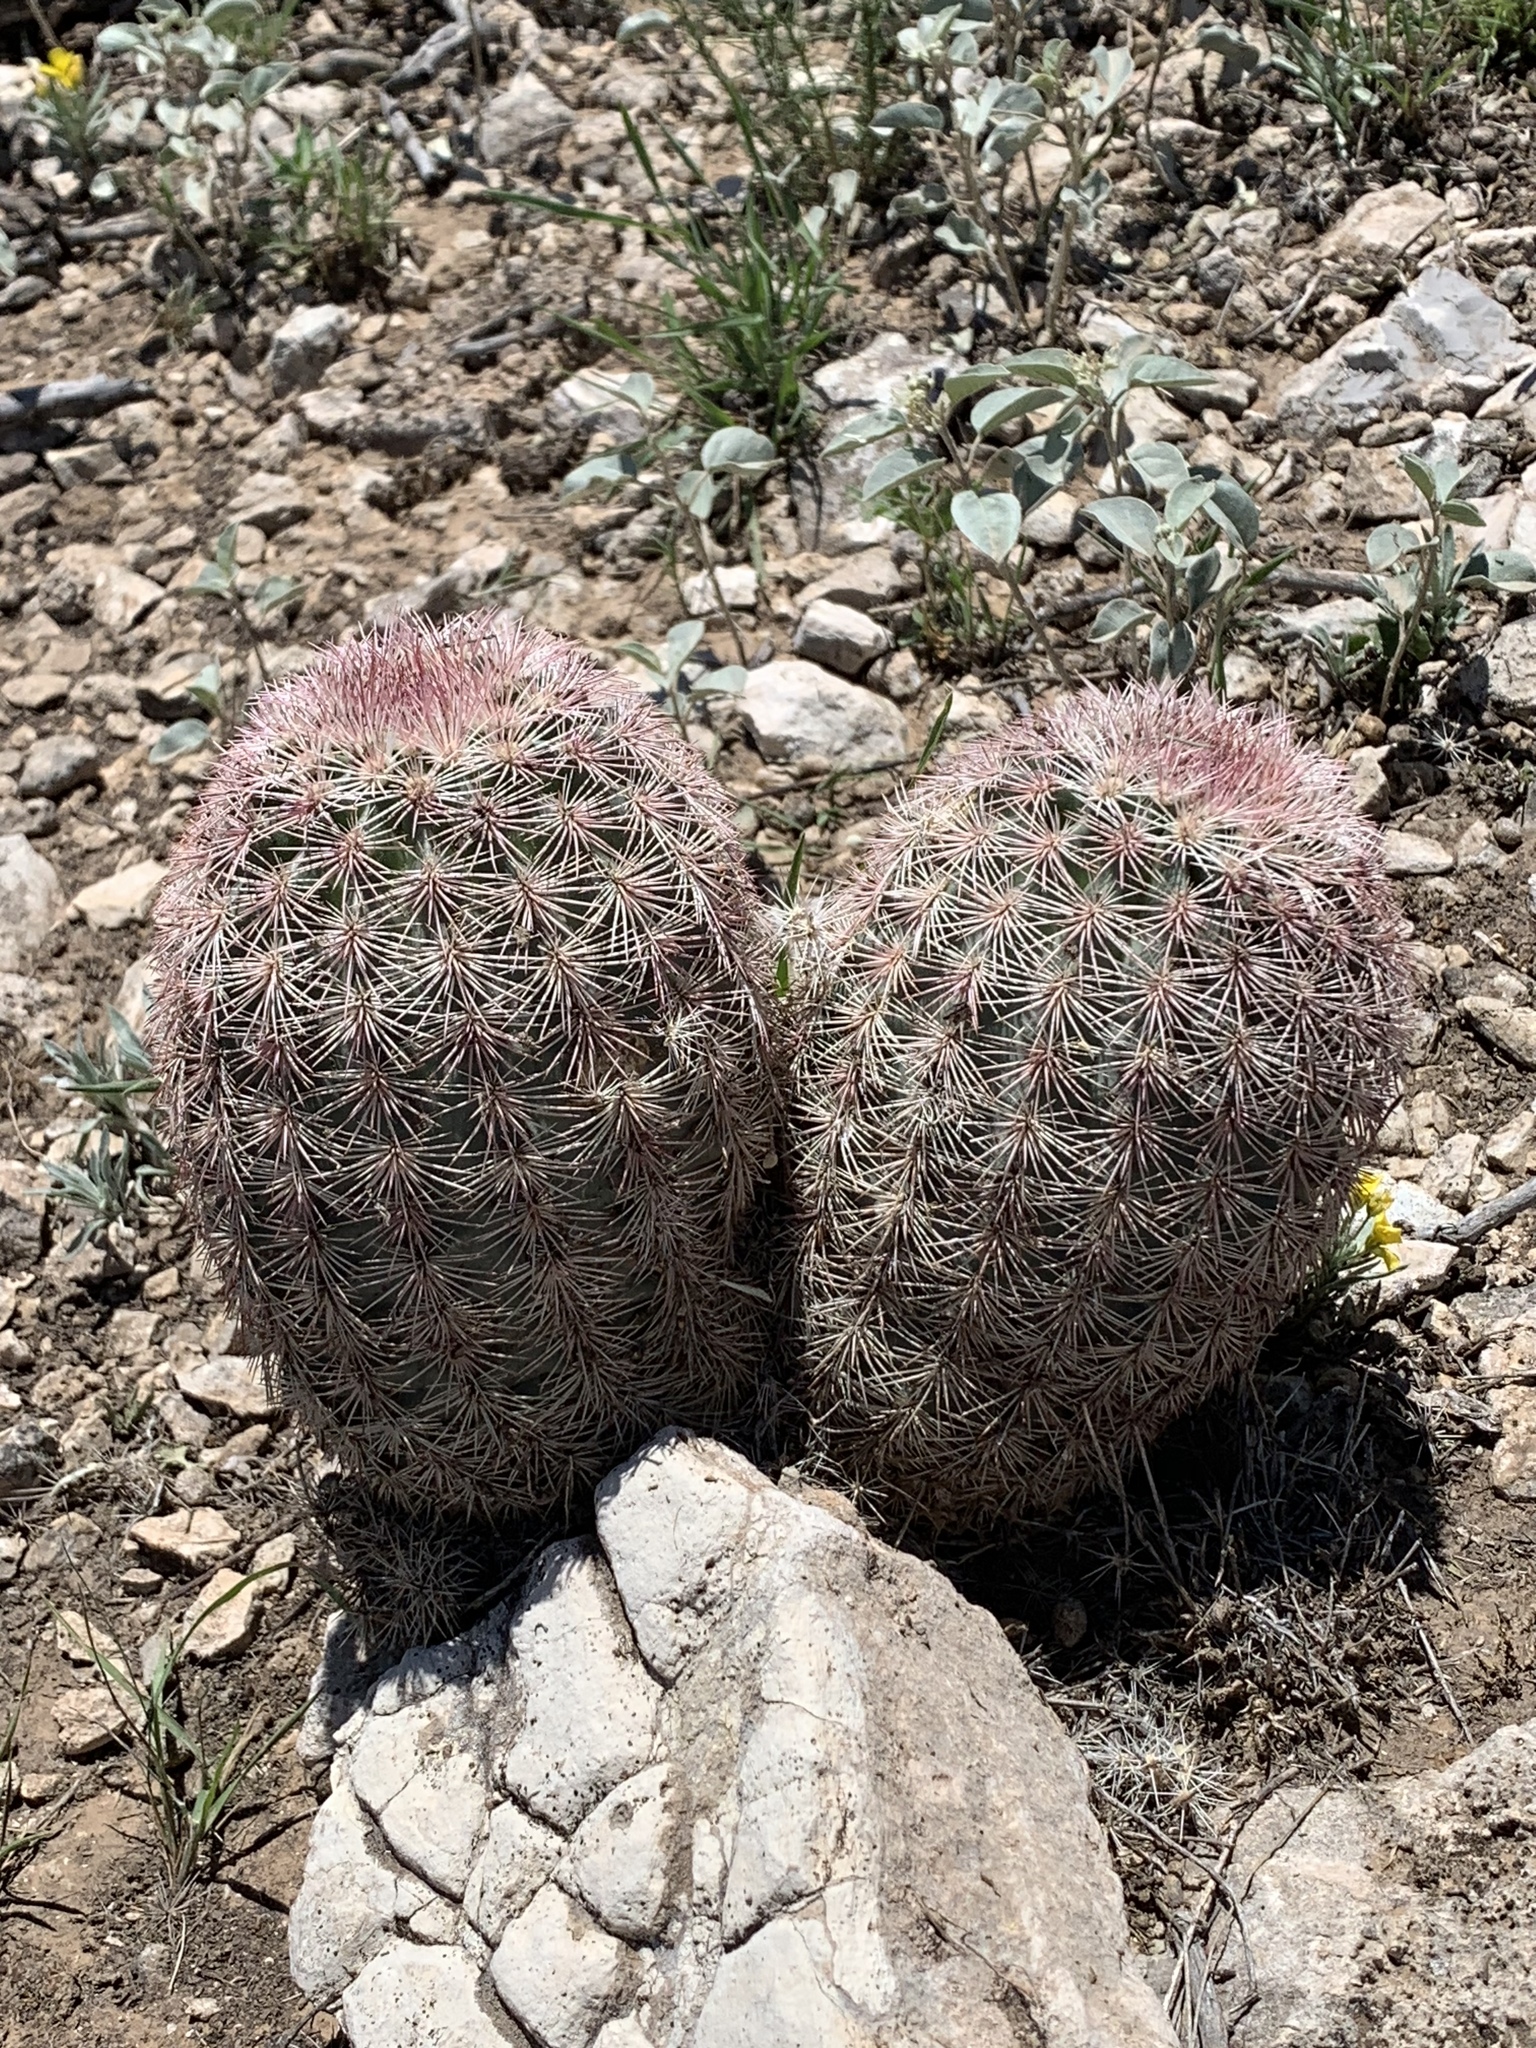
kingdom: Plantae
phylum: Tracheophyta
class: Magnoliopsida
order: Caryophyllales
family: Cactaceae
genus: Echinocereus
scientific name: Echinocereus dasyacanthus
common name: Spiny hedgehog cactus
